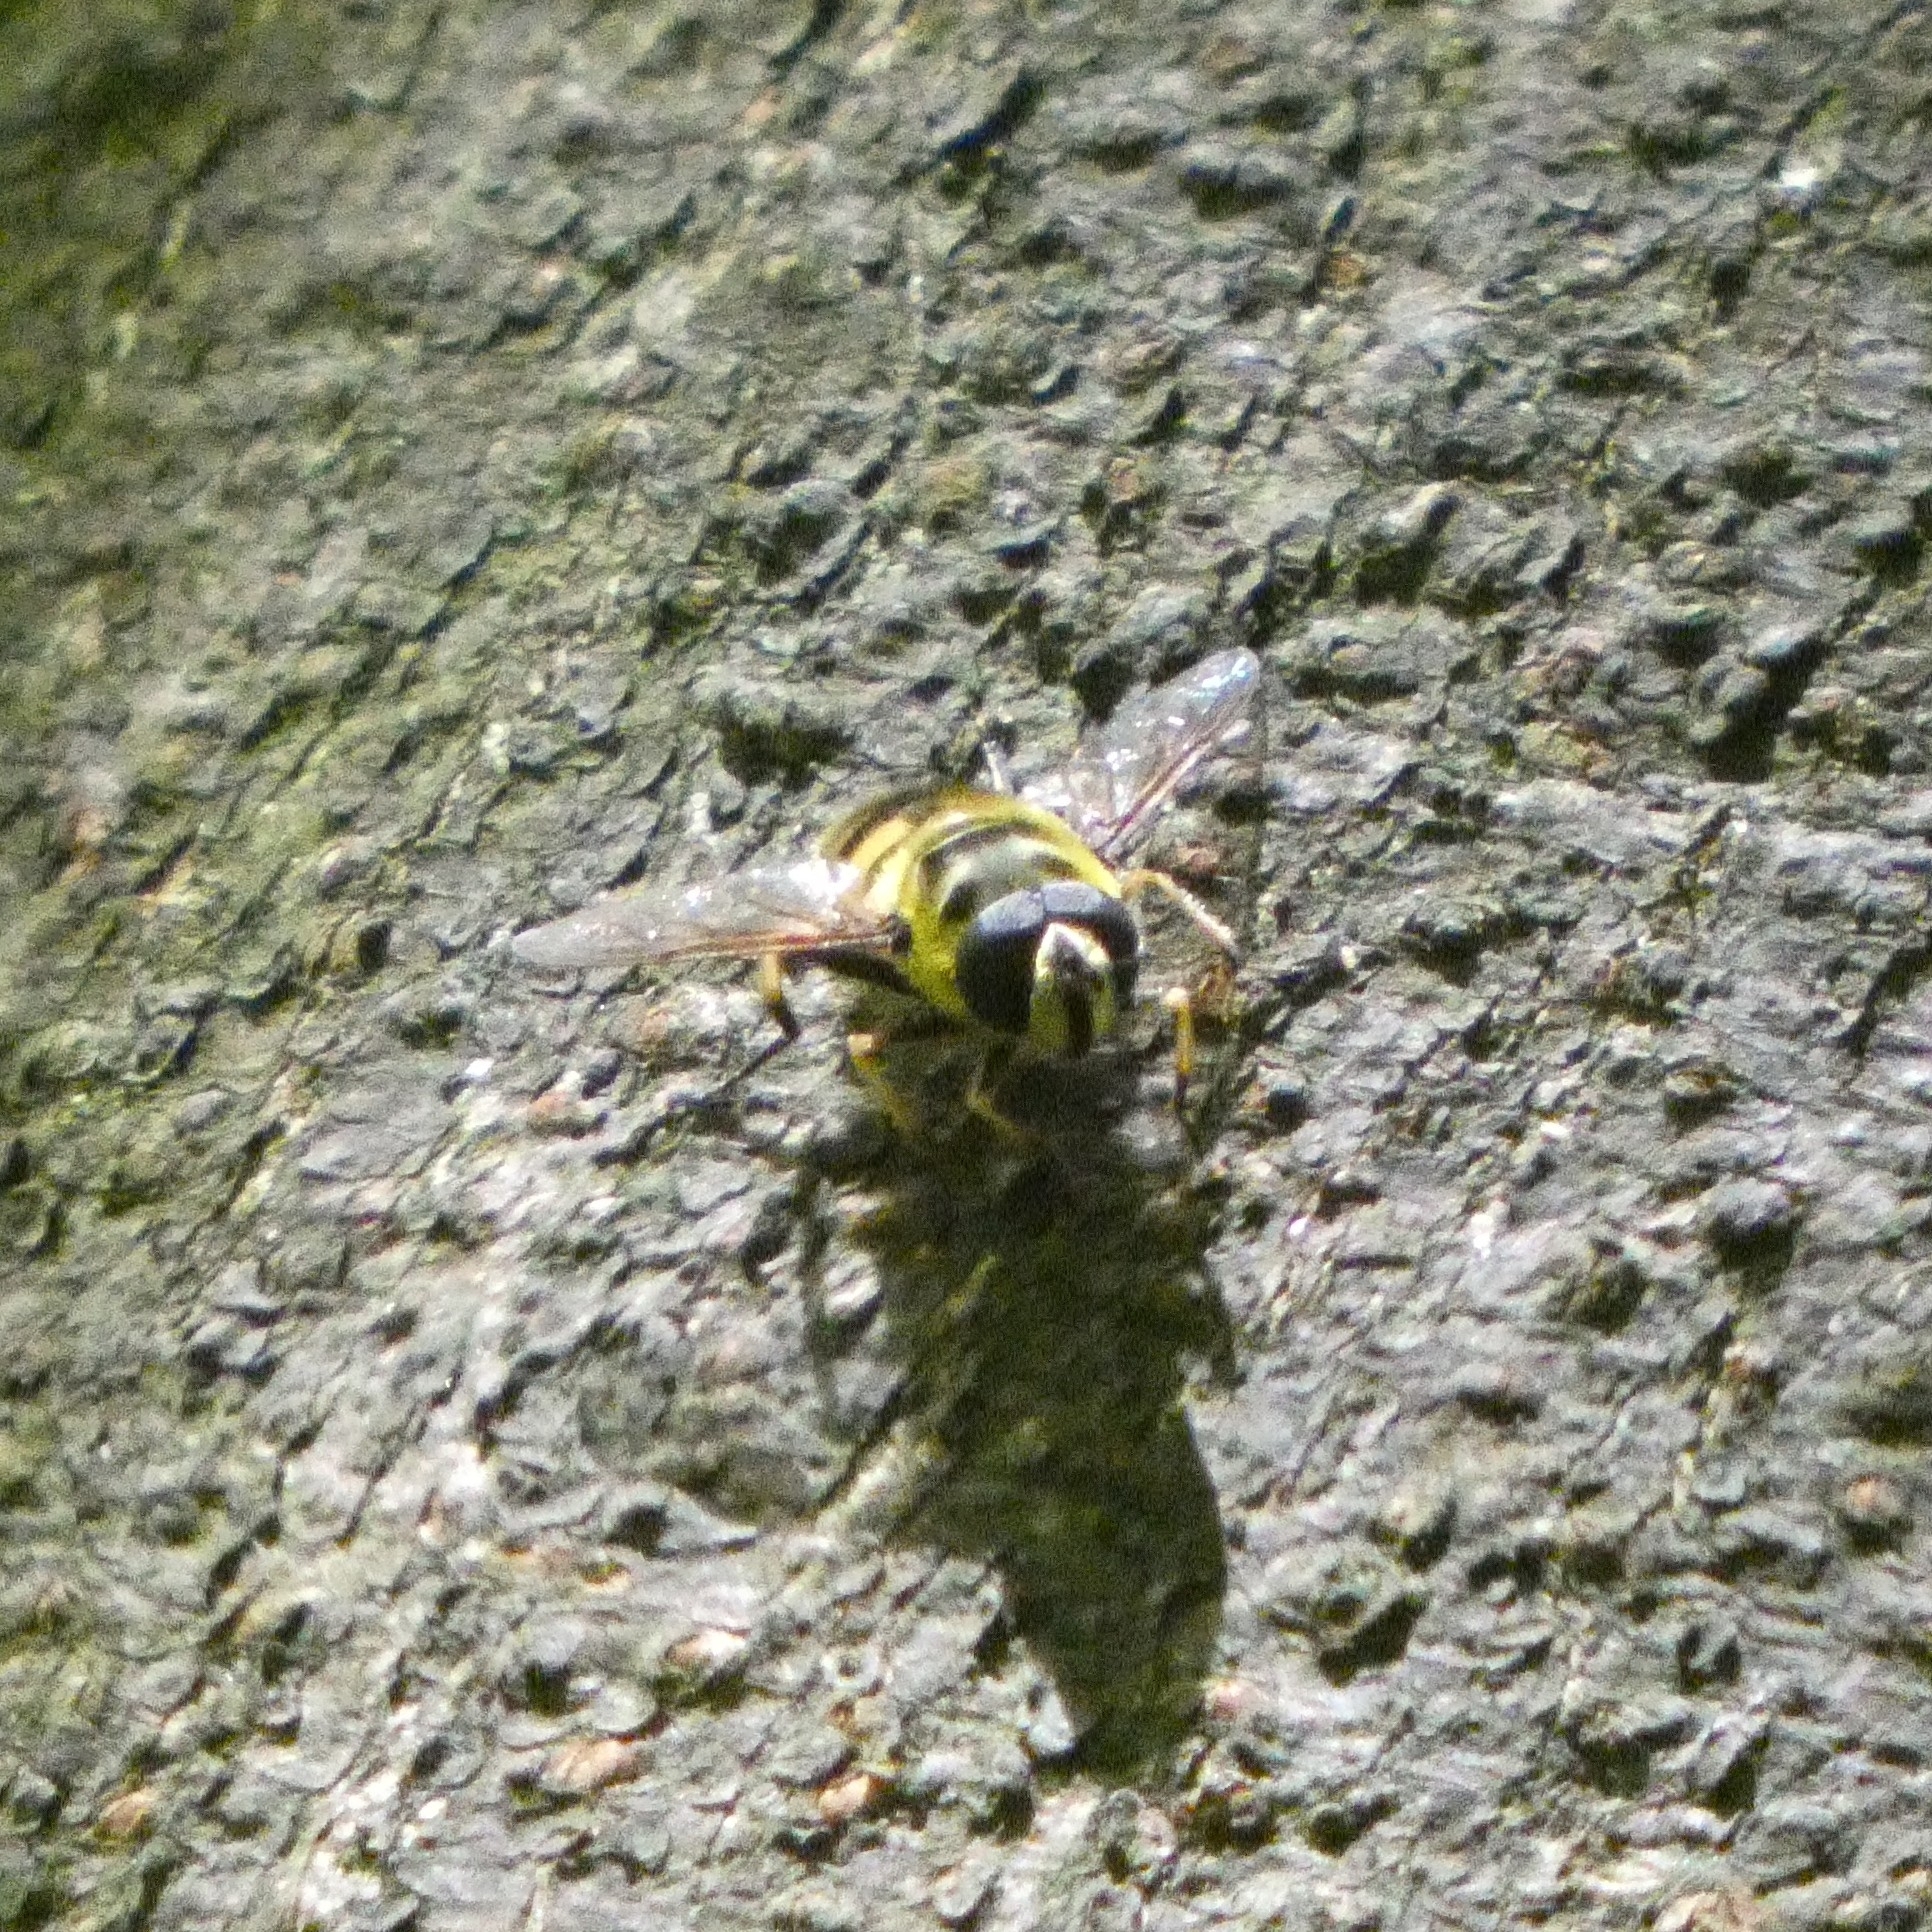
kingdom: Animalia
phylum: Arthropoda
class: Insecta
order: Diptera
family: Syrphidae
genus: Myathropa
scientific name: Myathropa florea
